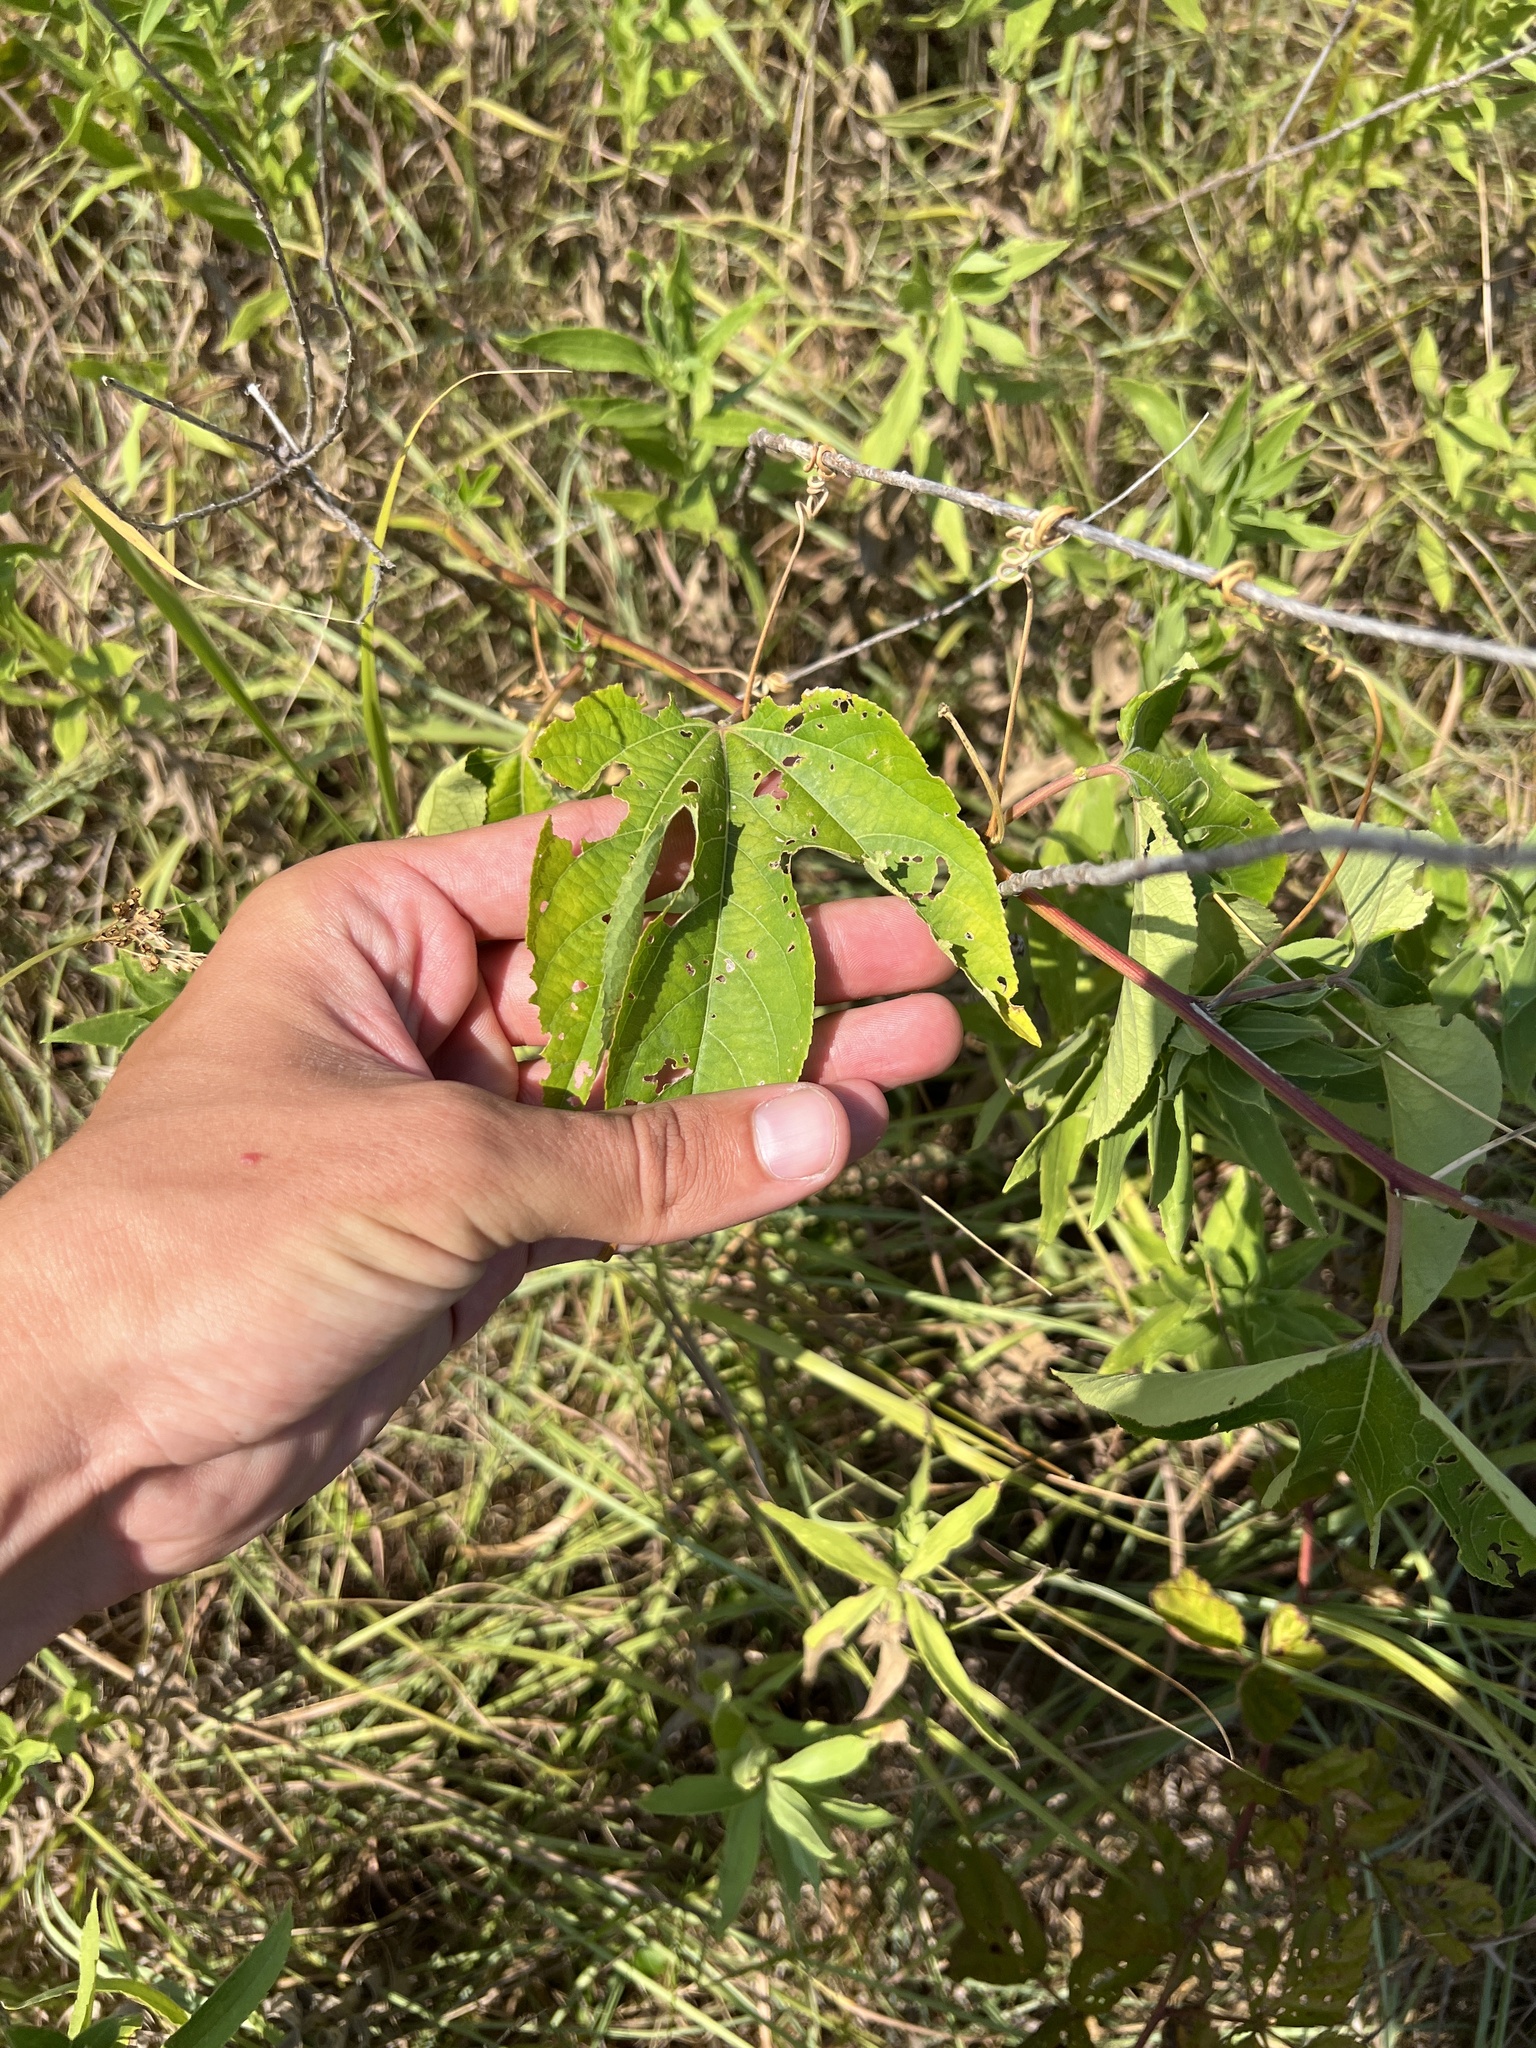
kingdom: Plantae
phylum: Tracheophyta
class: Magnoliopsida
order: Malpighiales
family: Passifloraceae
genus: Passiflora
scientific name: Passiflora incarnata
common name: Apricot-vine
